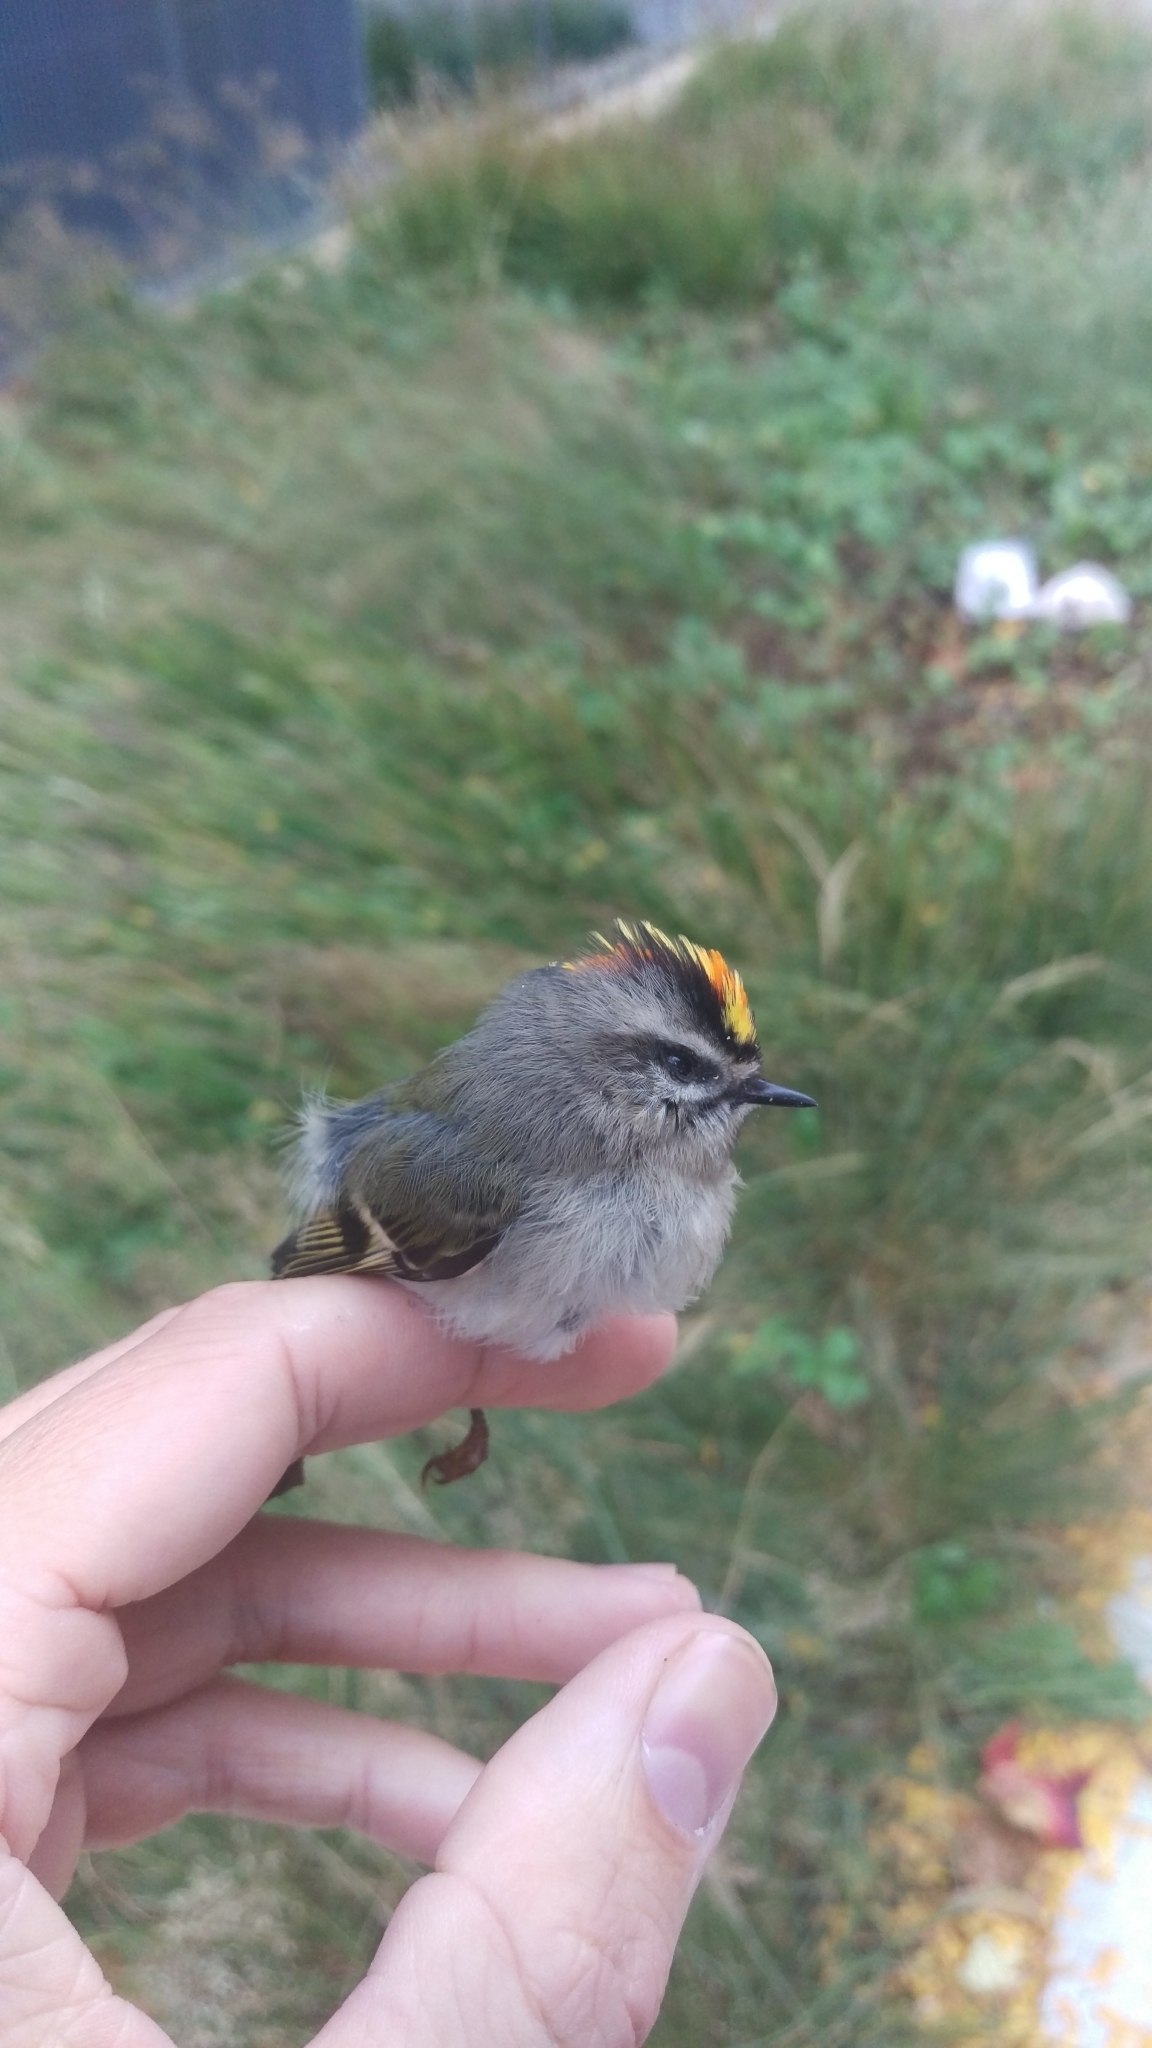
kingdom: Animalia
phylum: Chordata
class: Aves
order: Passeriformes
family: Regulidae
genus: Regulus
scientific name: Regulus satrapa
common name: Golden-crowned kinglet
